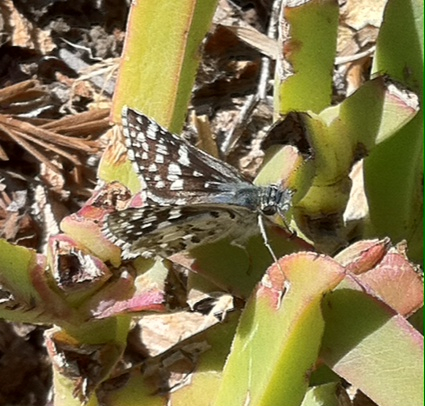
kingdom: Animalia
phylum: Arthropoda
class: Insecta
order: Lepidoptera
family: Hesperiidae
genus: Burnsius
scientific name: Burnsius communis
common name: Common checkered-skipper
